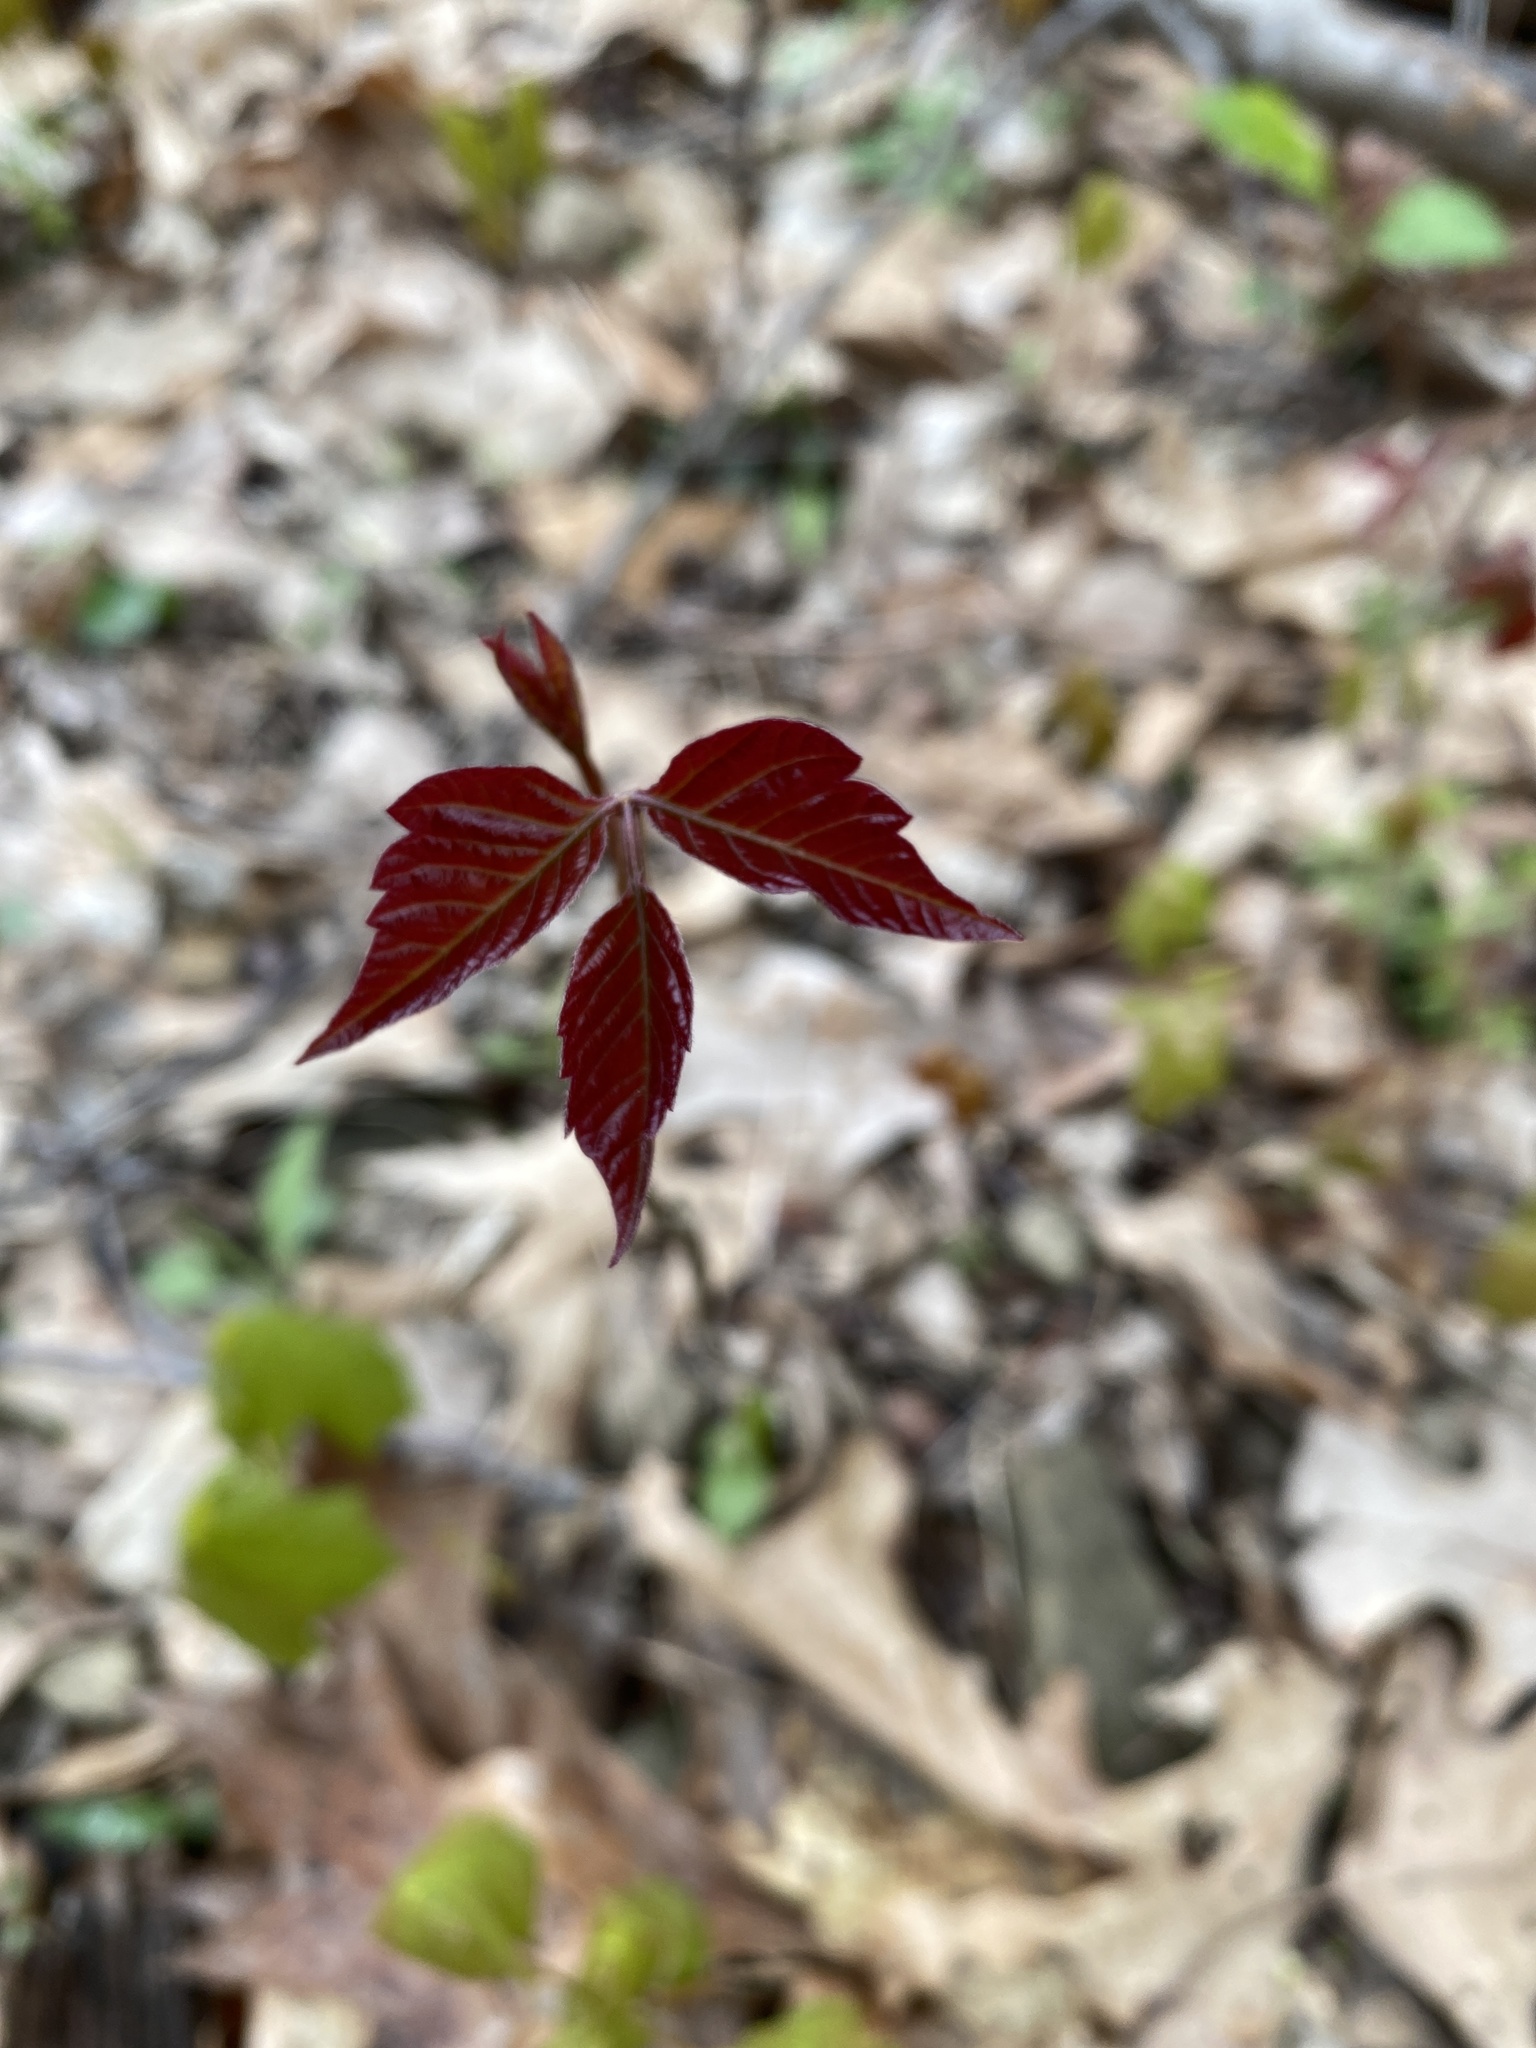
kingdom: Plantae
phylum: Tracheophyta
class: Magnoliopsida
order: Sapindales
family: Anacardiaceae
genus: Toxicodendron
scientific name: Toxicodendron radicans
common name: Poison ivy
